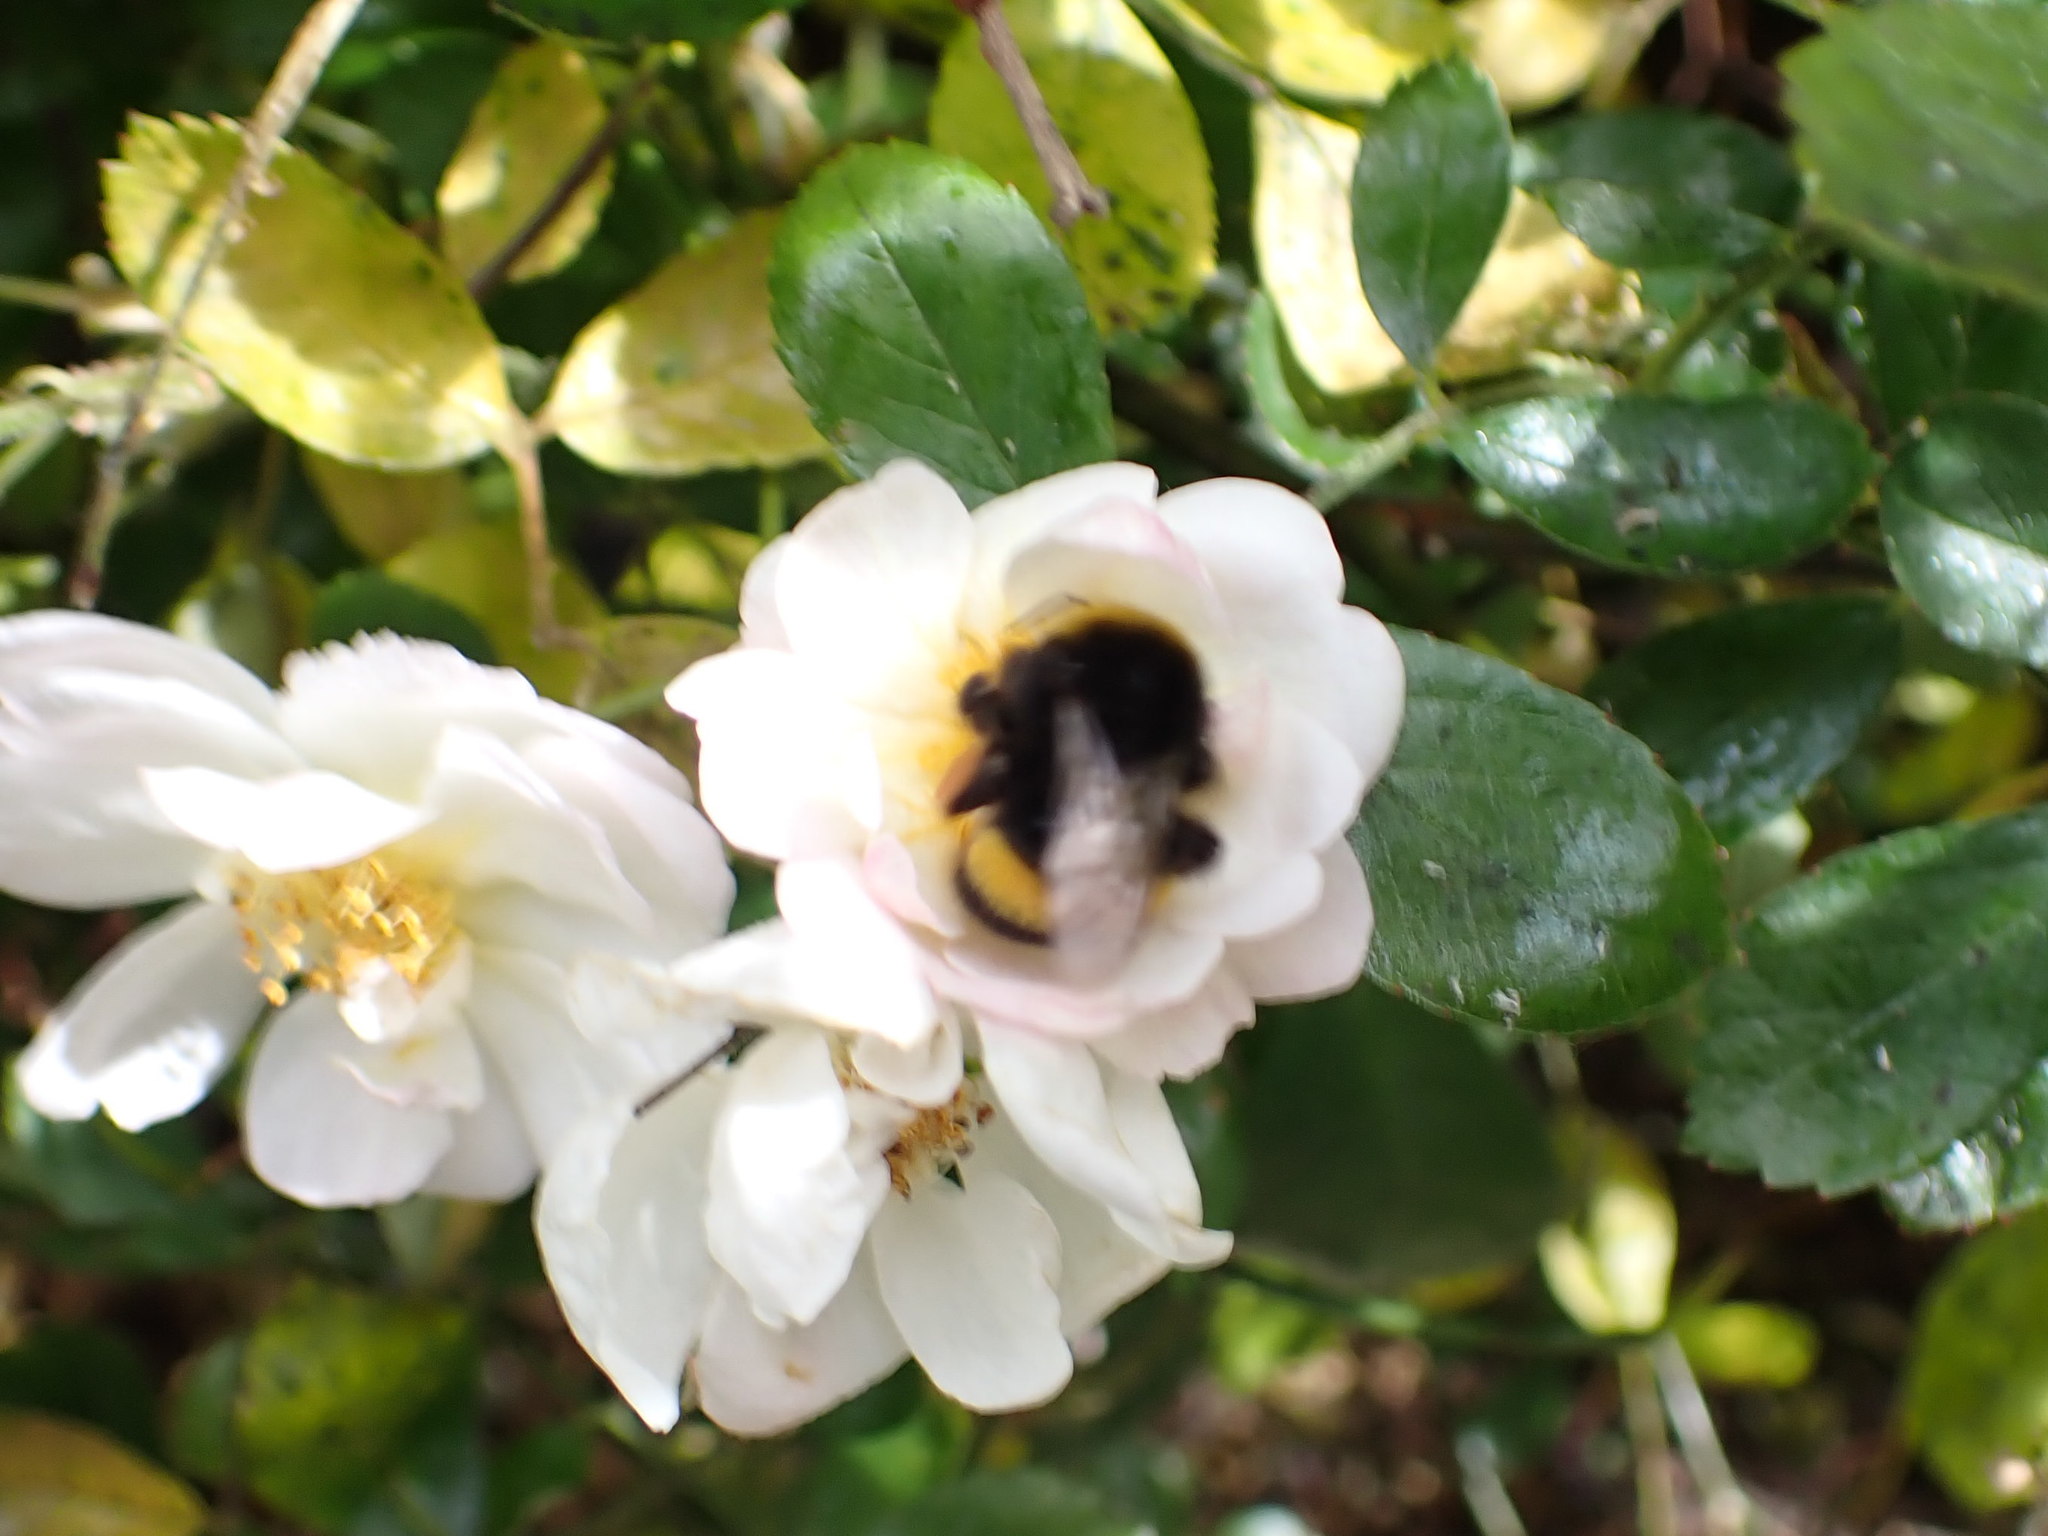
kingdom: Animalia
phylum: Arthropoda
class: Insecta
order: Hymenoptera
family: Apidae
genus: Bombus
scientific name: Bombus terrestris
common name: Buff-tailed bumblebee
